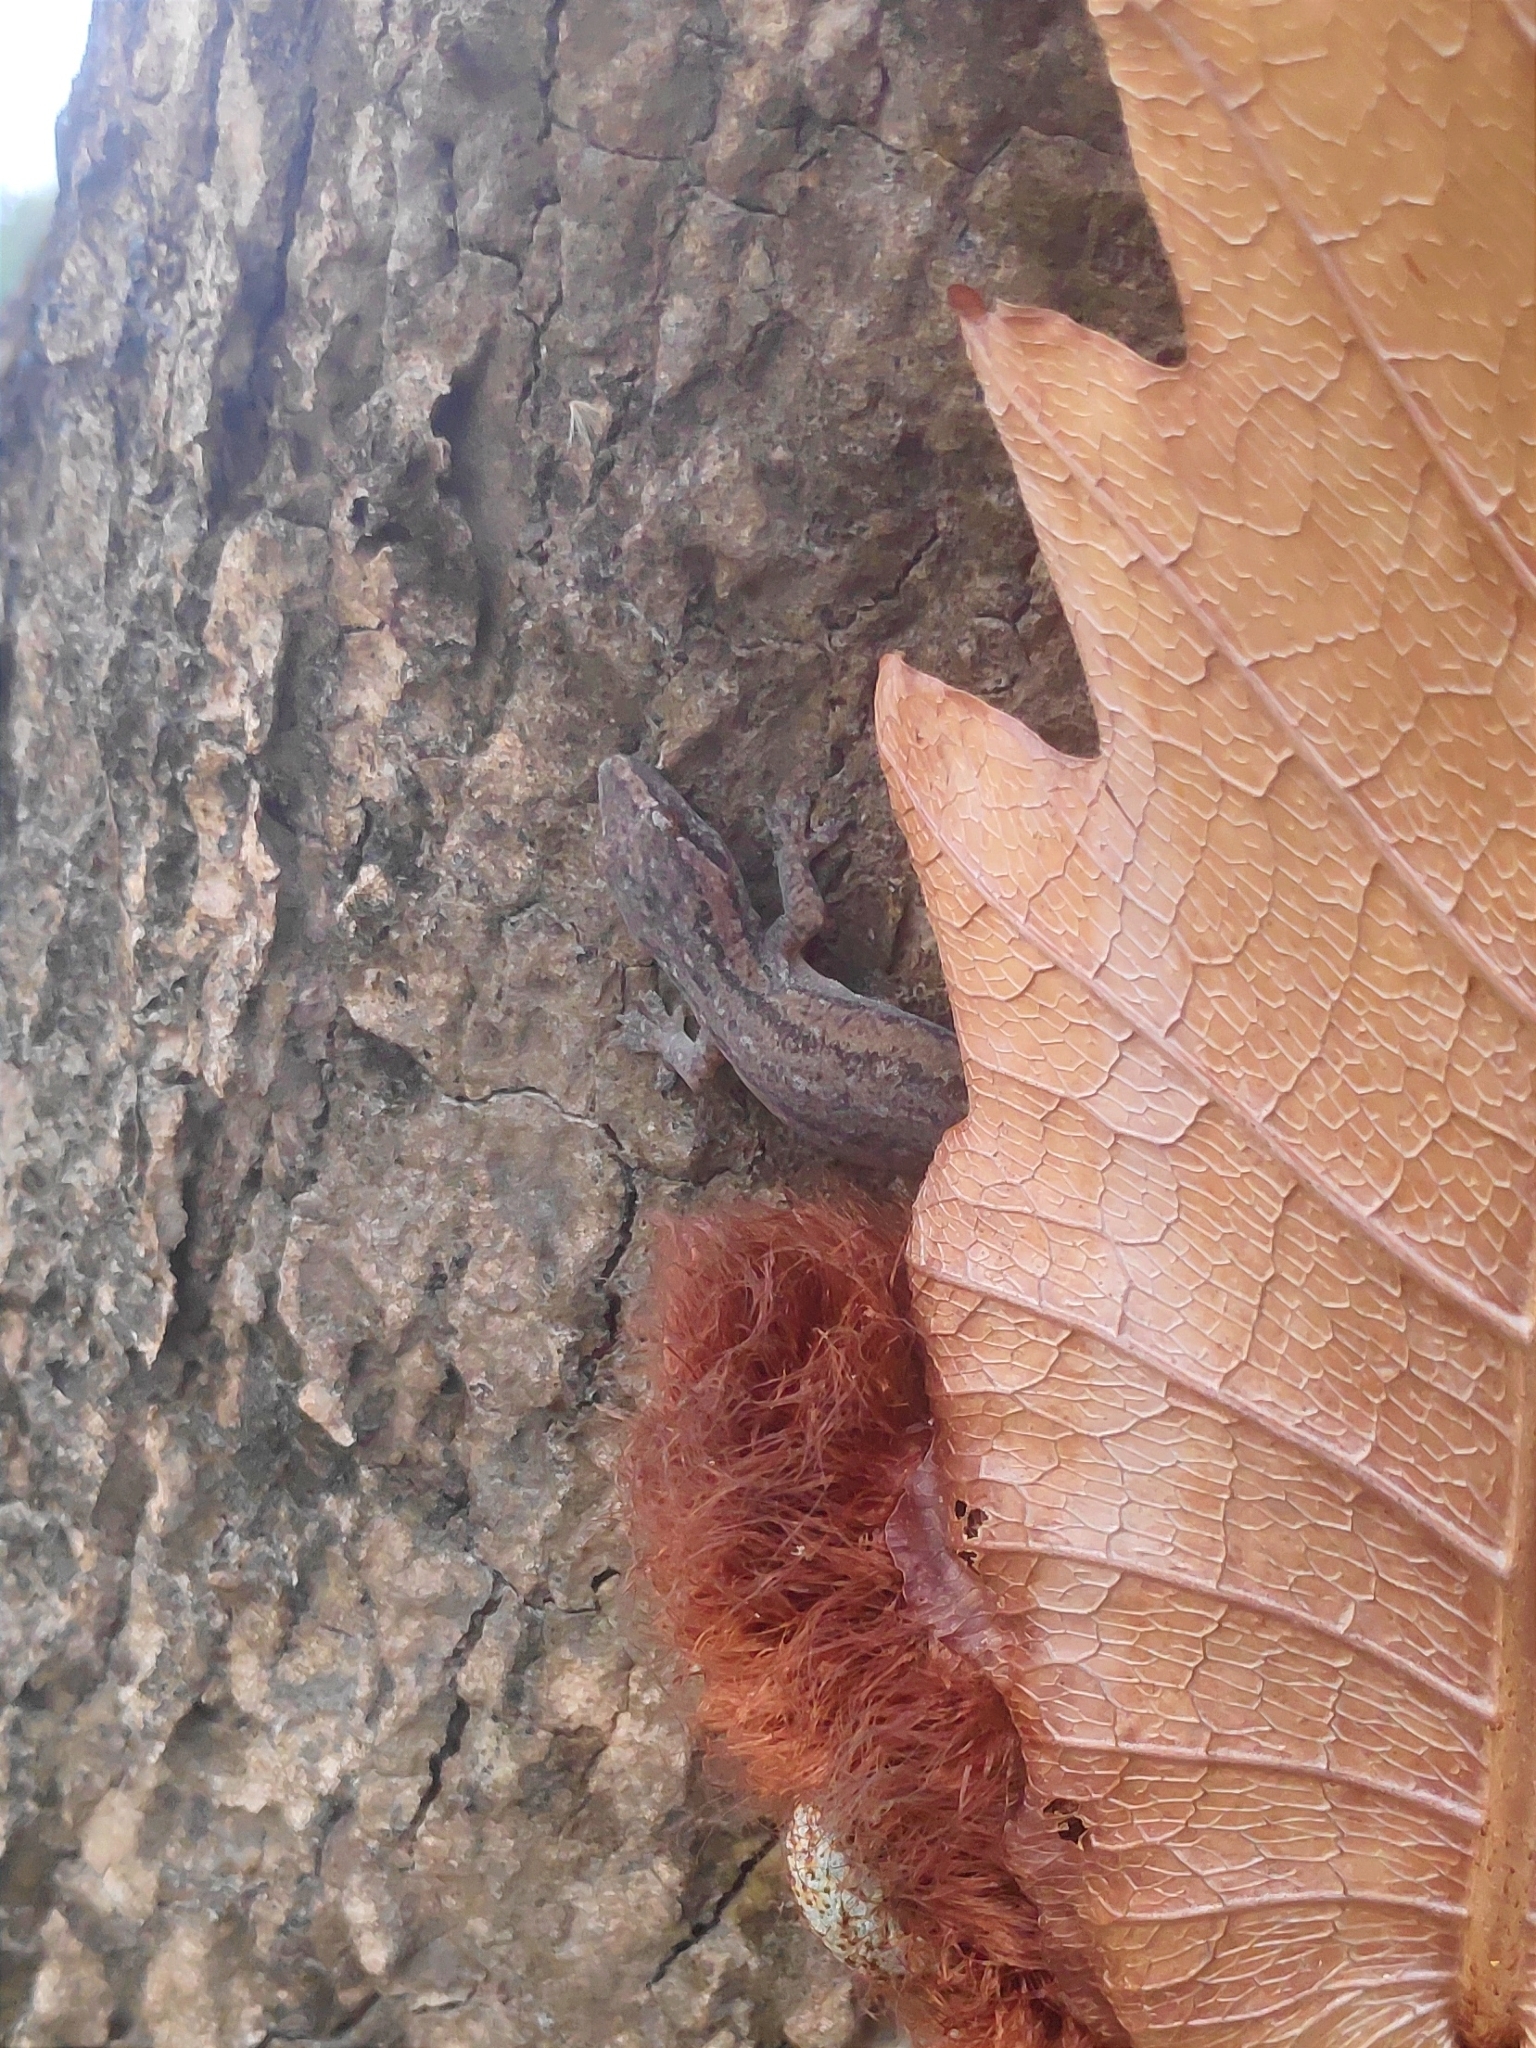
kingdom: Animalia
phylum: Chordata
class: Squamata
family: Gekkonidae
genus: Hemidactylus
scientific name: Hemidactylus frenatus
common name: Common house gecko
